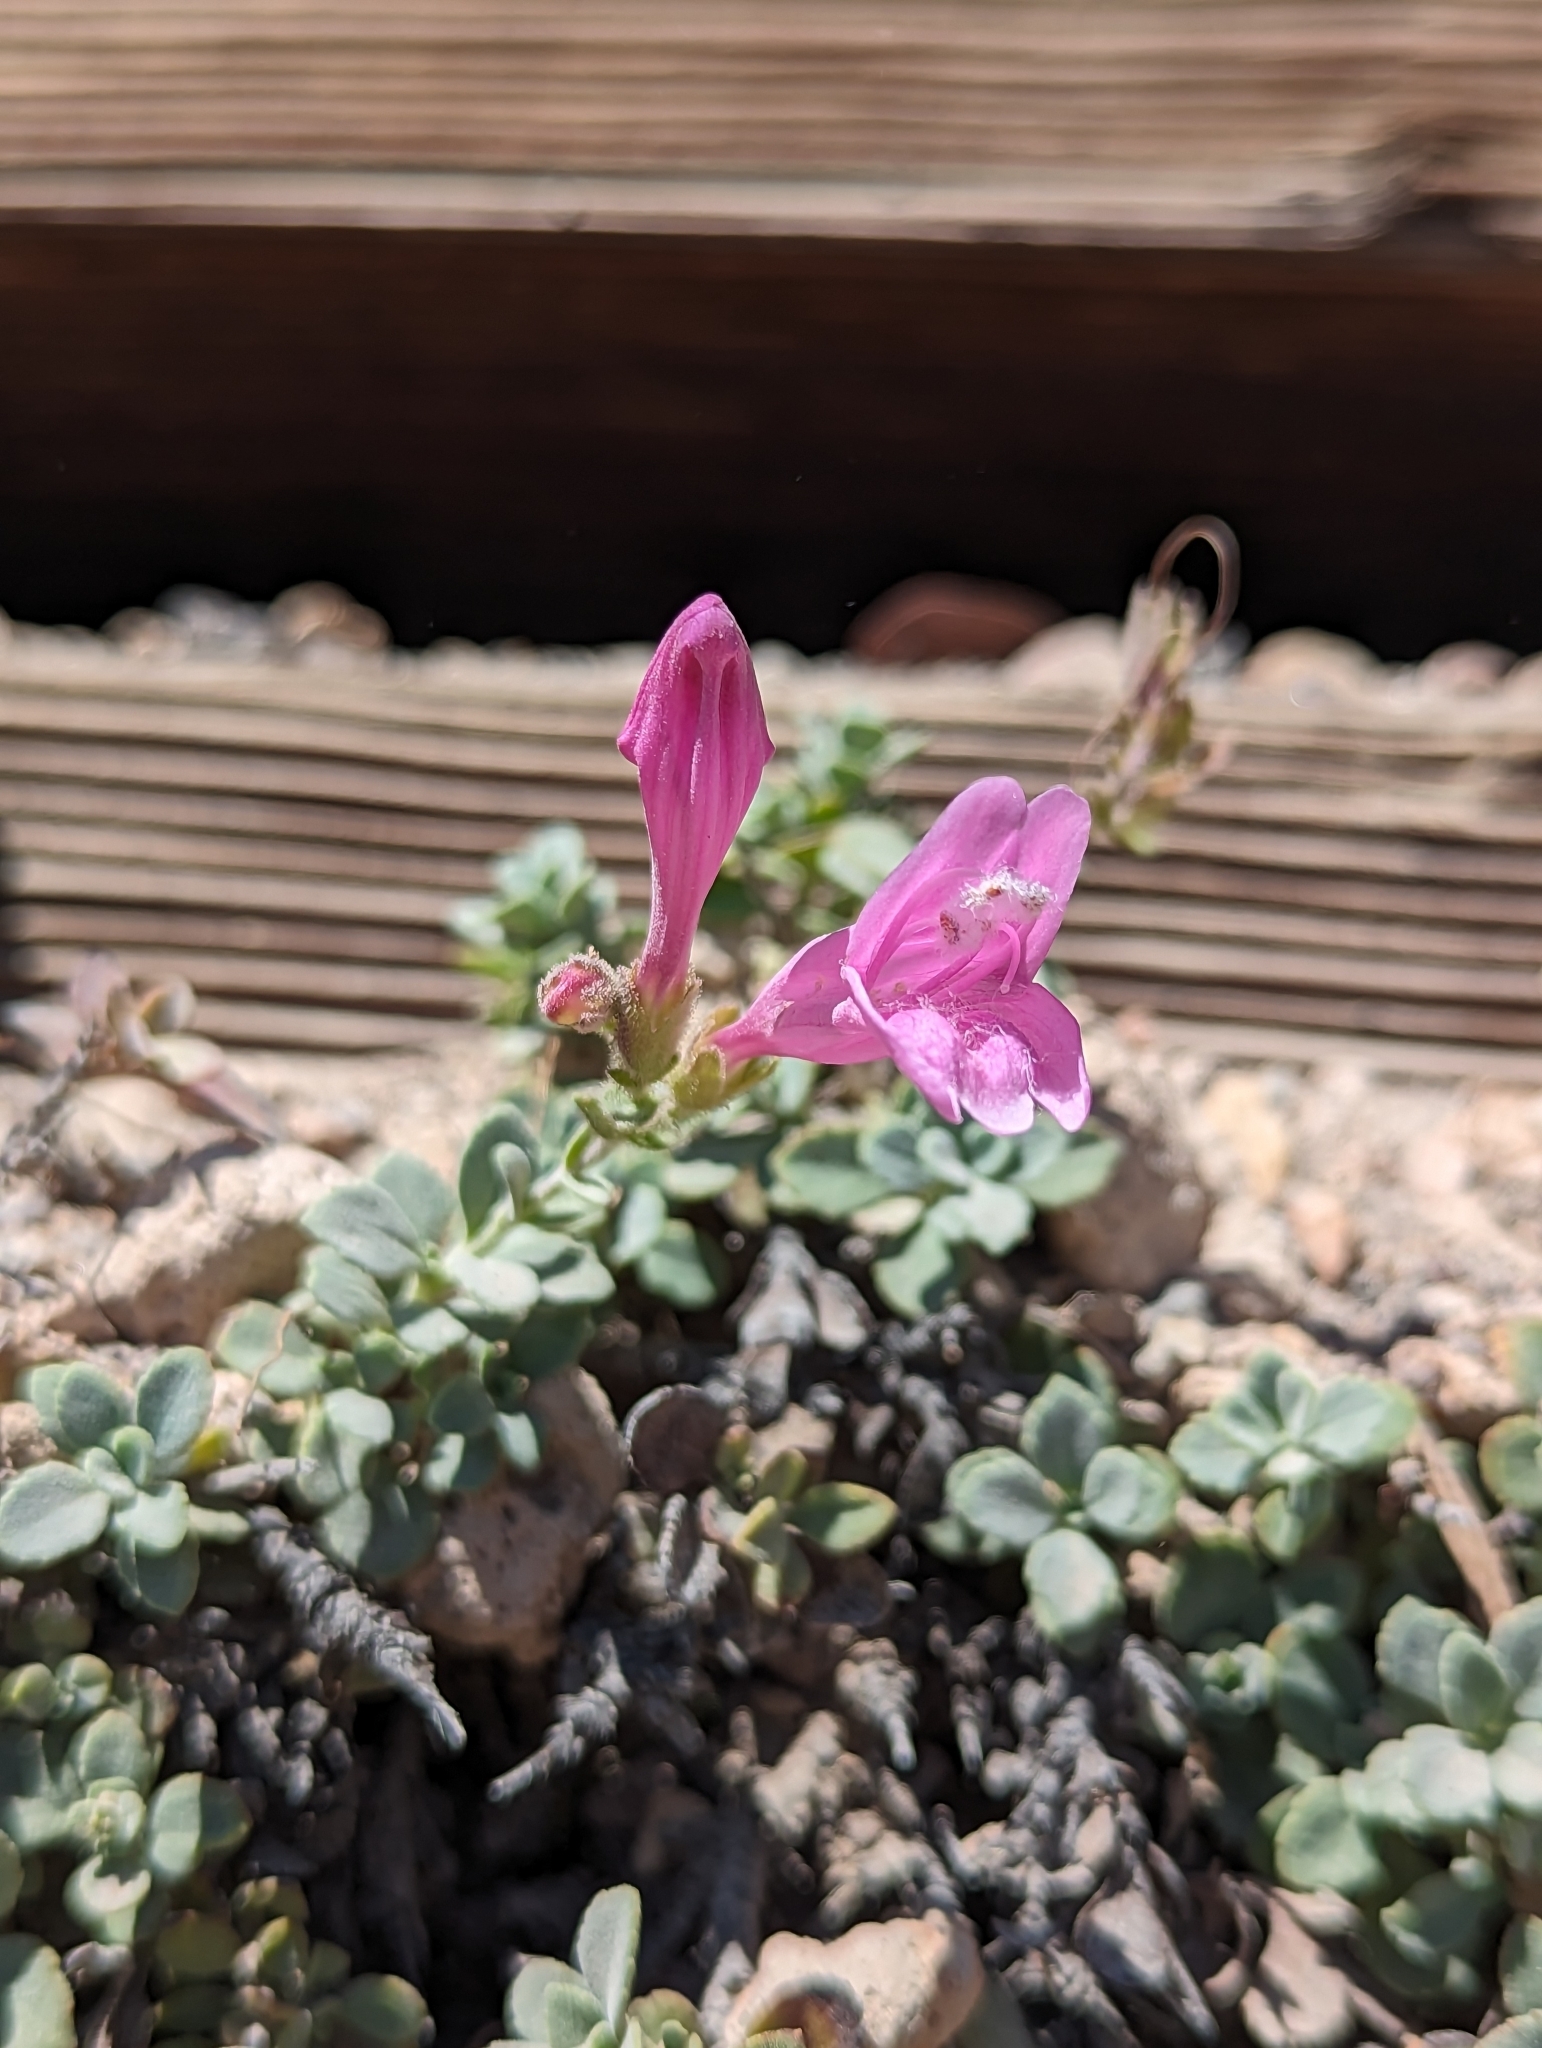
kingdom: Plantae
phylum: Tracheophyta
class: Magnoliopsida
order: Lamiales
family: Plantaginaceae
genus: Penstemon
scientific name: Penstemon rupicola
